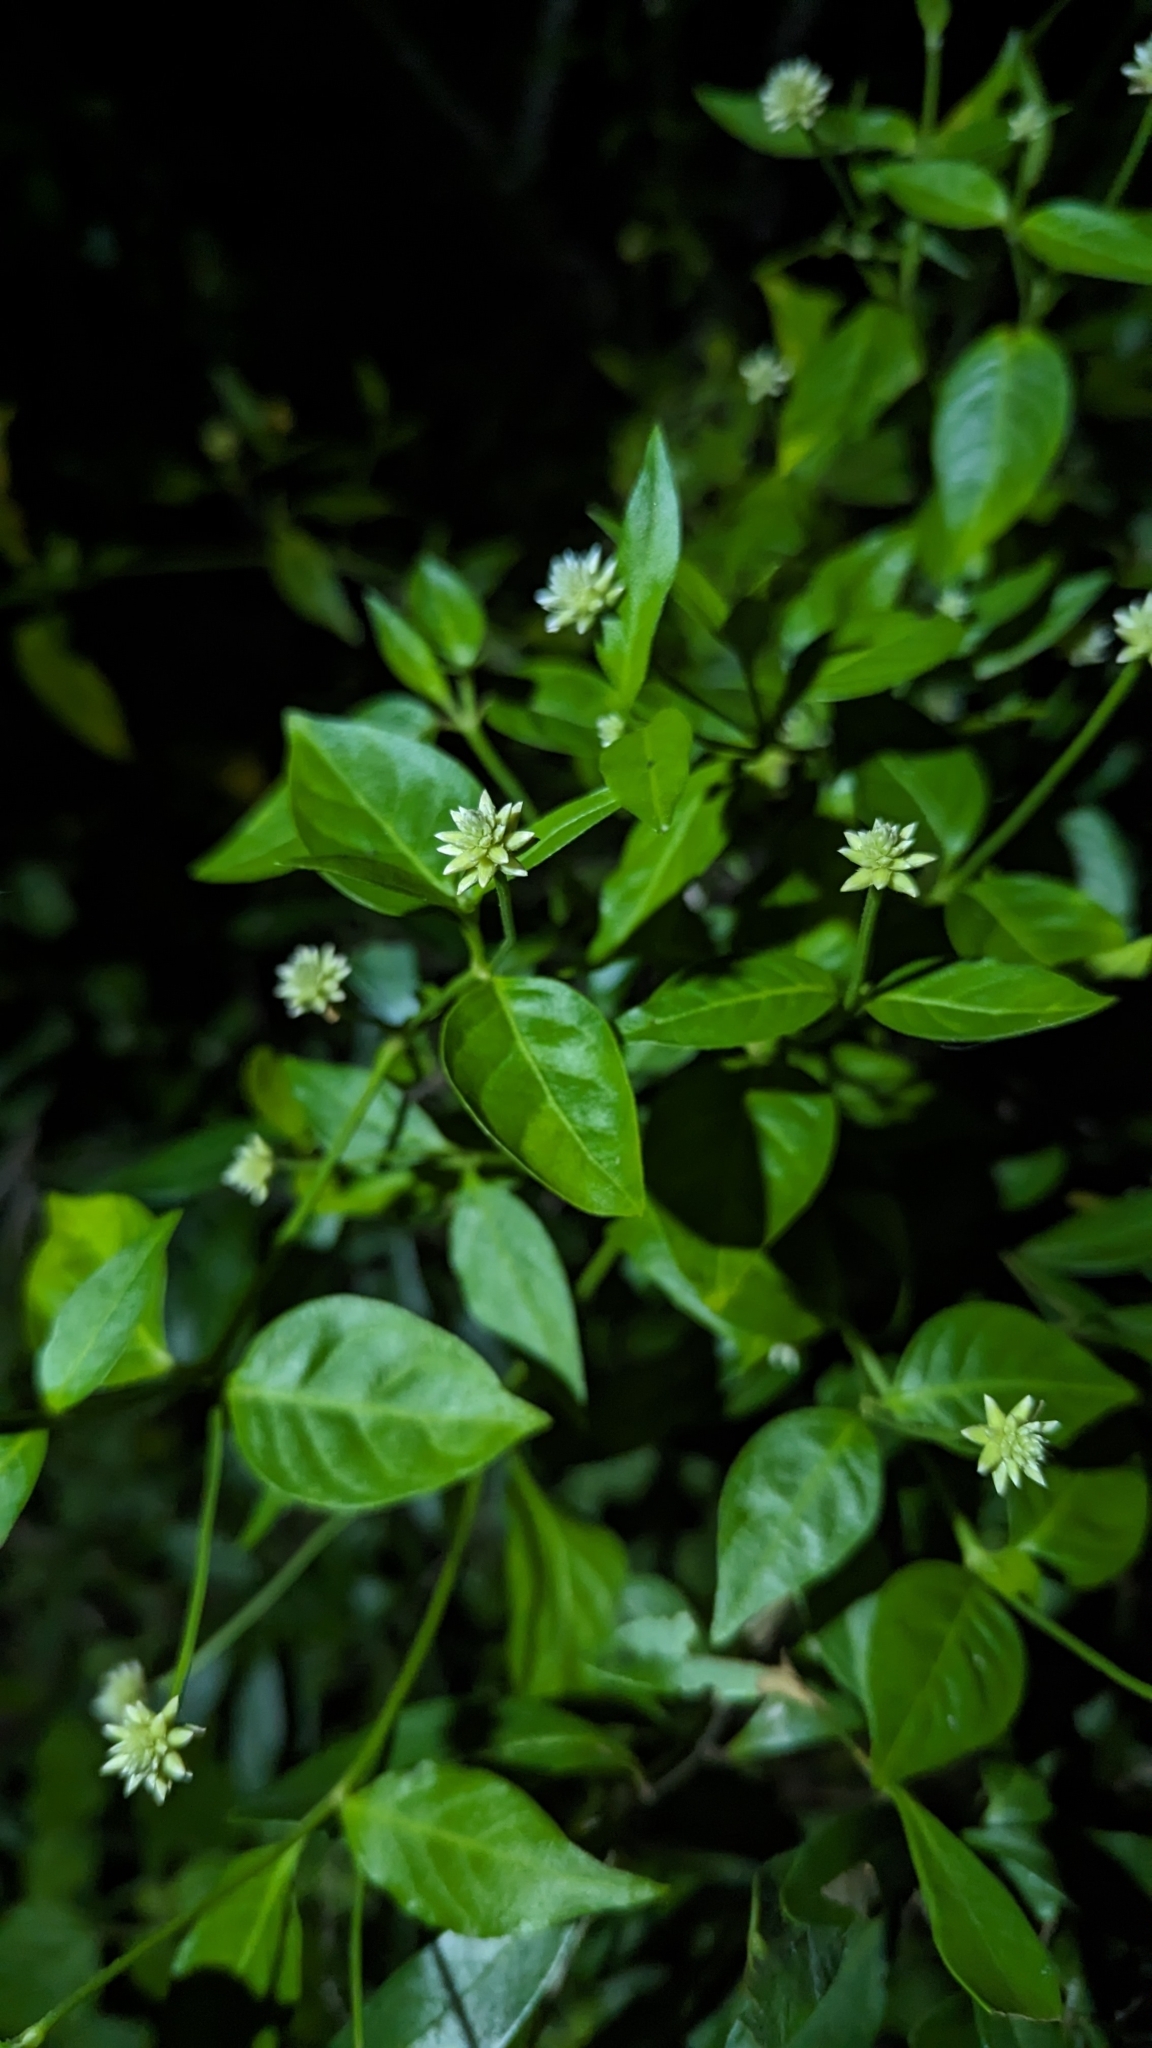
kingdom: Plantae
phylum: Tracheophyta
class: Magnoliopsida
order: Caryophyllales
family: Amaranthaceae
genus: Alternanthera
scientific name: Alternanthera flavescens
